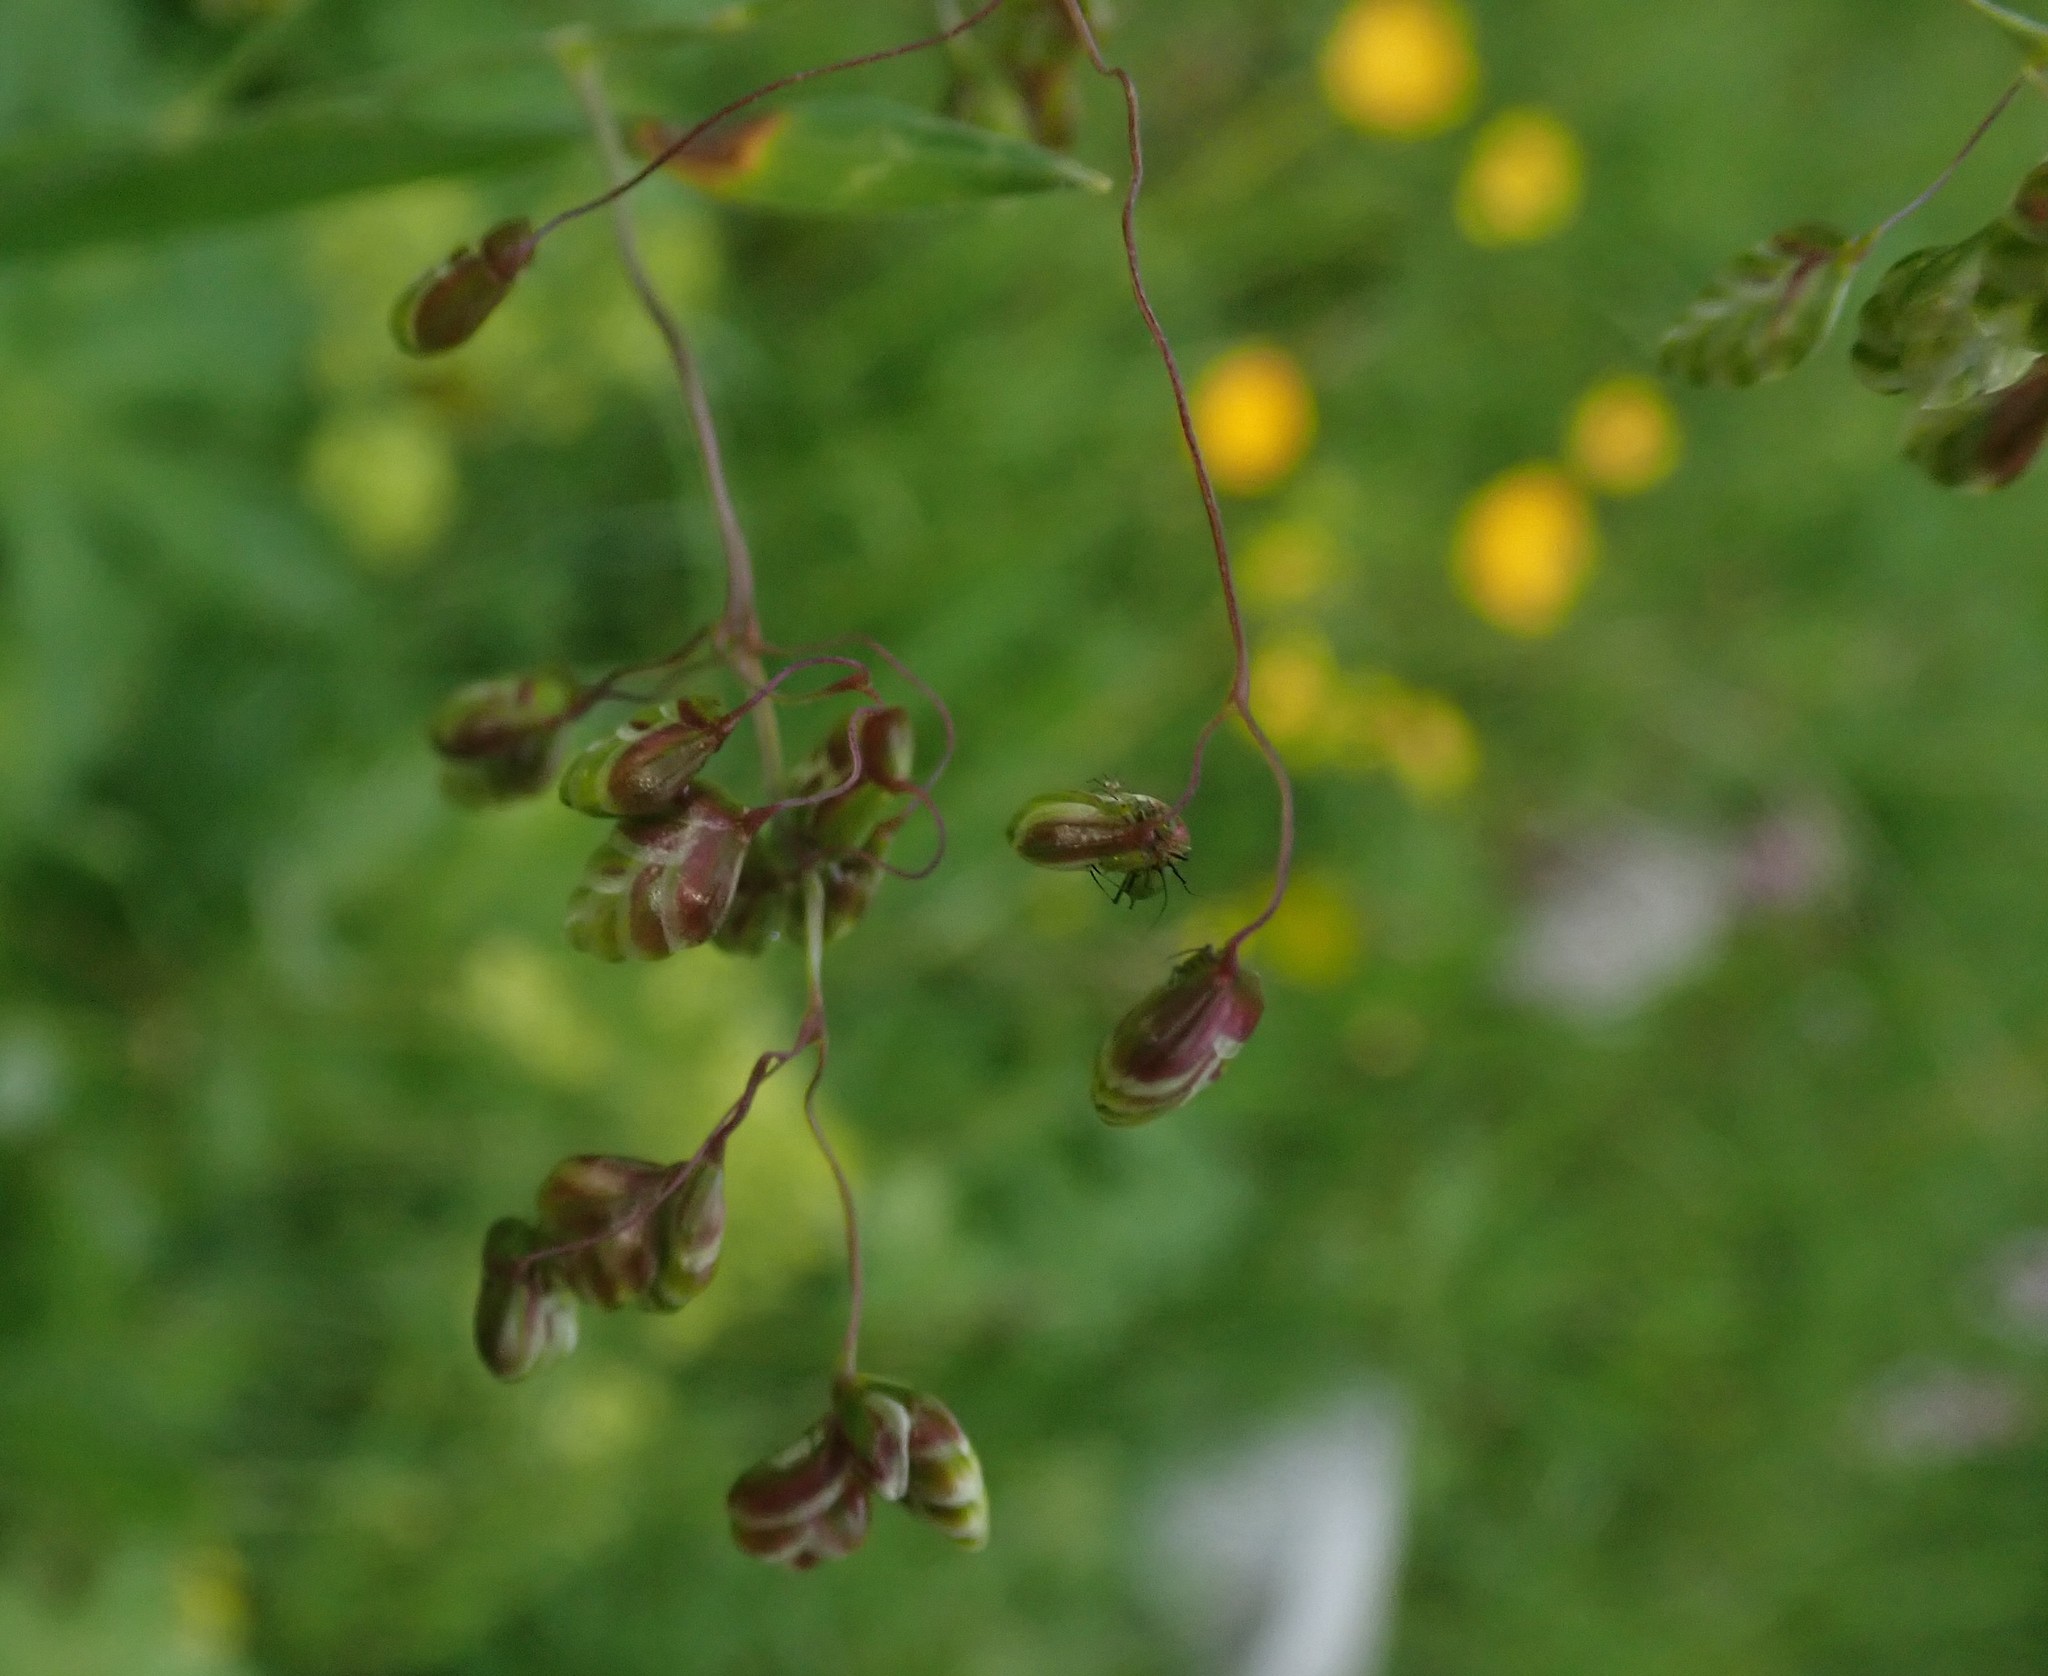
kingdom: Plantae
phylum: Tracheophyta
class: Liliopsida
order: Poales
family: Poaceae
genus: Briza
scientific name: Briza media
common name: Quaking grass
